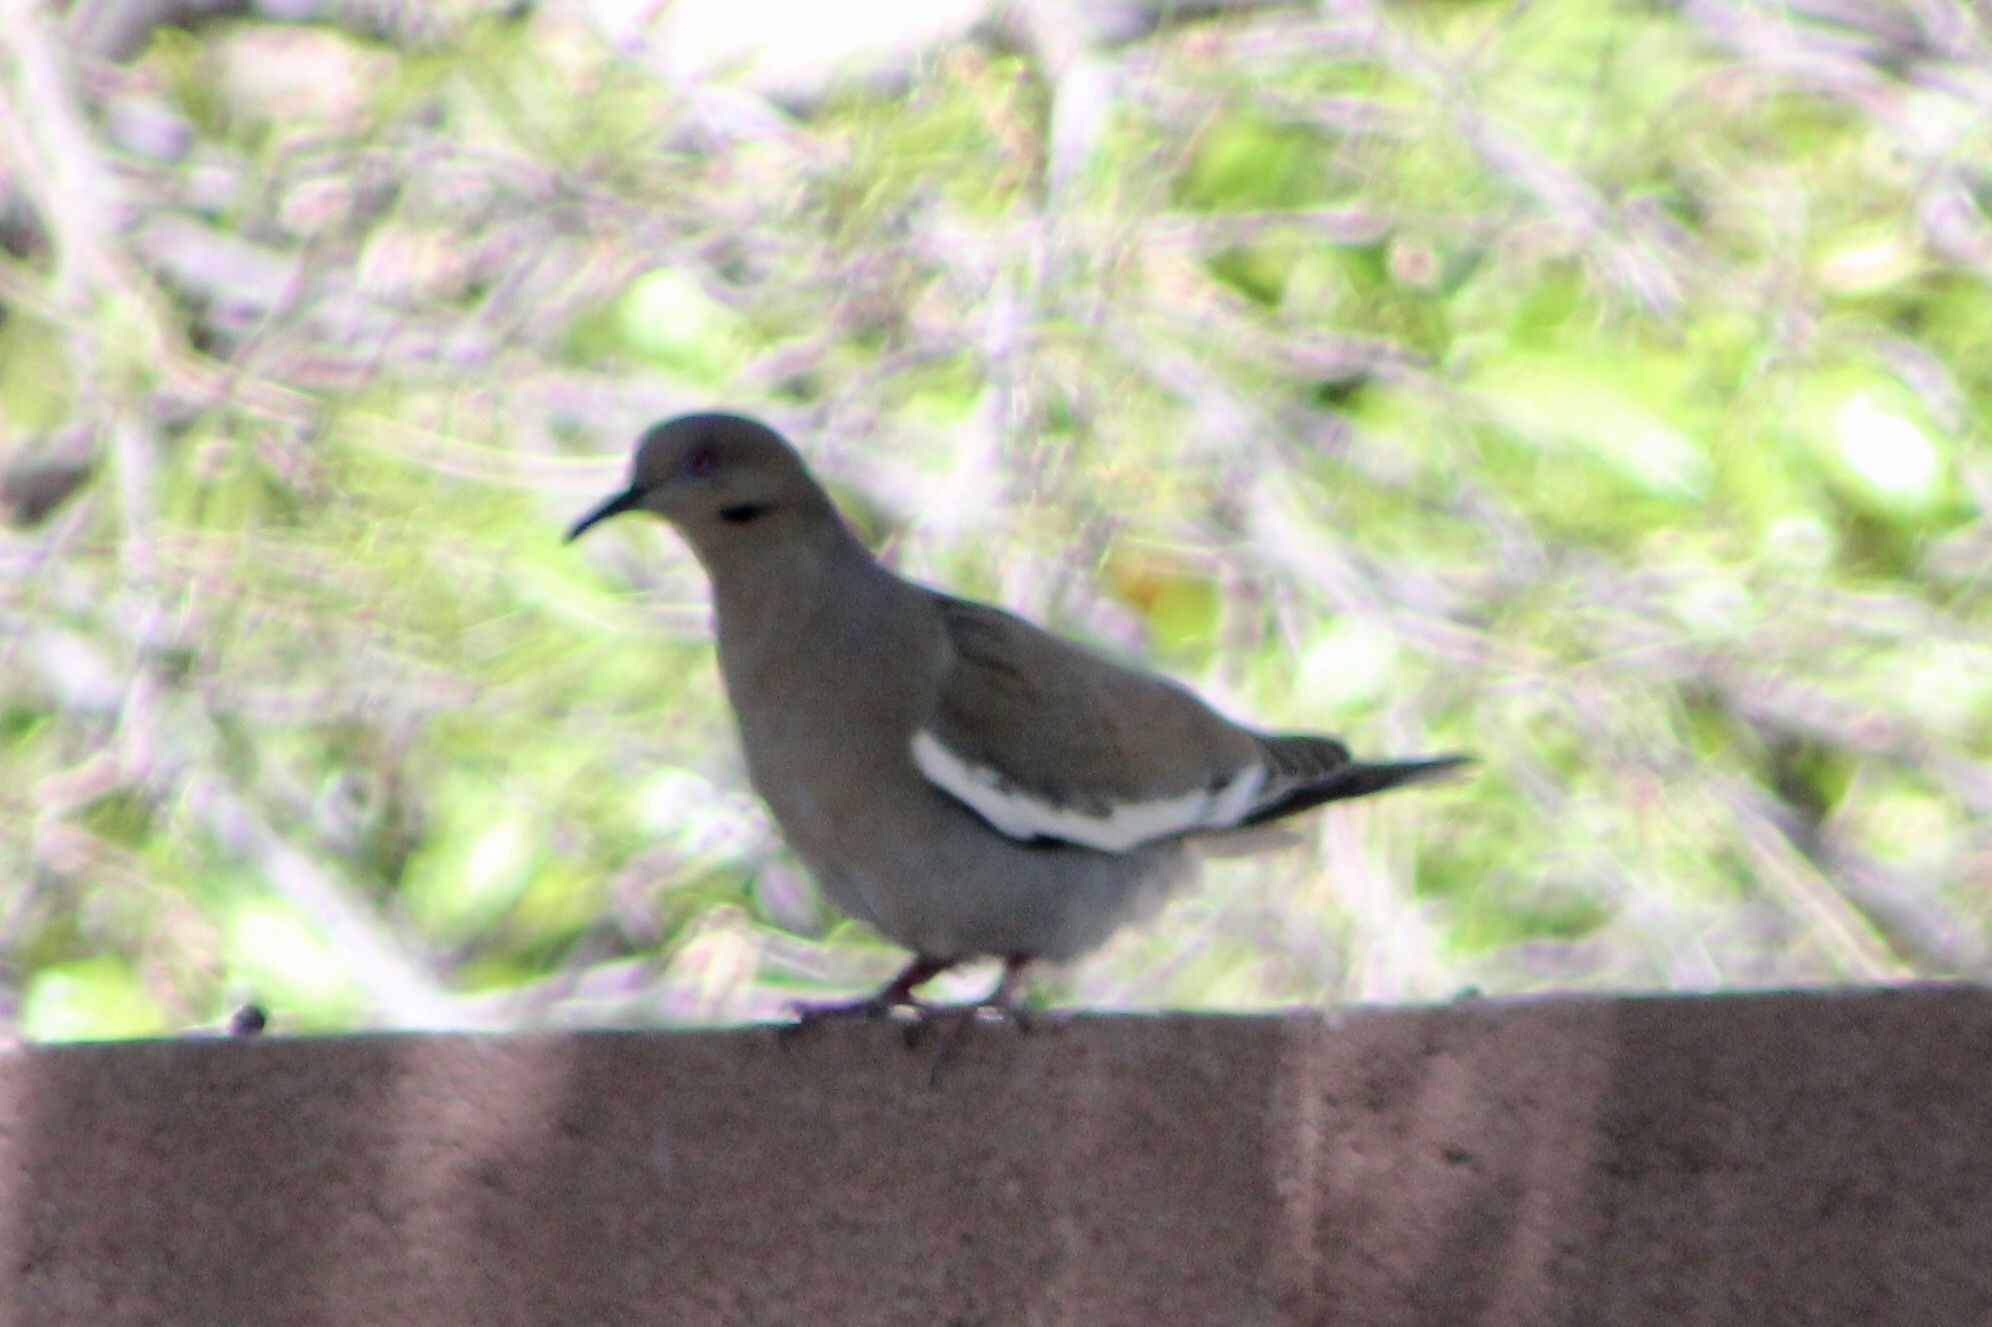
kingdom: Animalia
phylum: Chordata
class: Aves
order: Columbiformes
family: Columbidae
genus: Zenaida
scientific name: Zenaida asiatica
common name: White-winged dove
